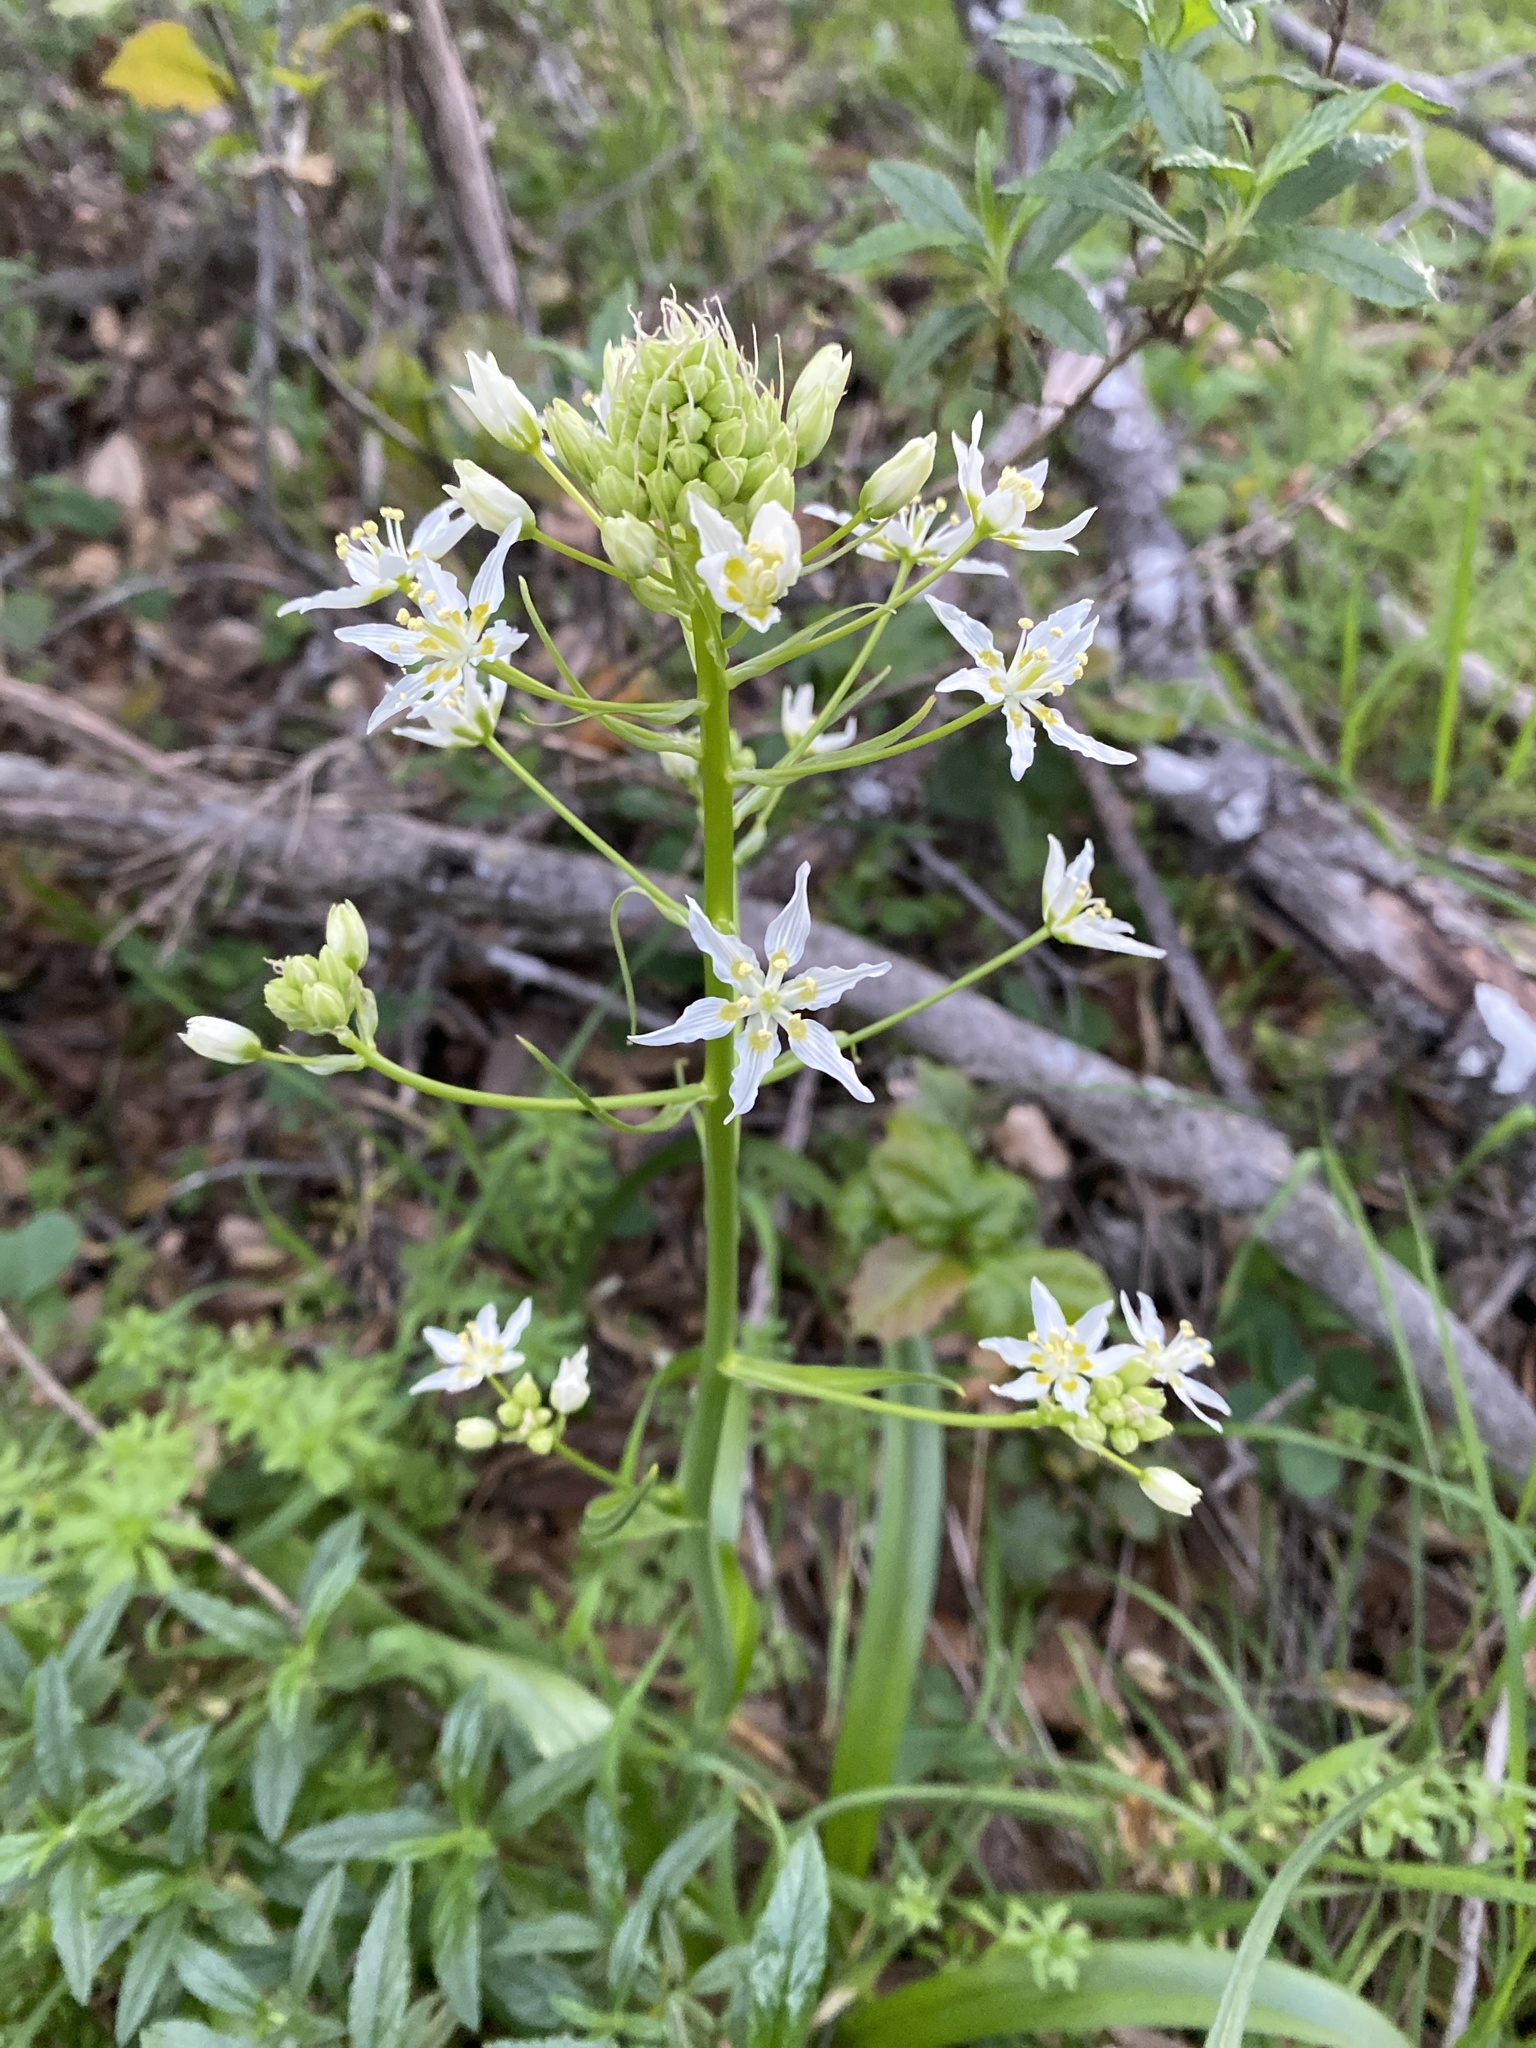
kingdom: Plantae
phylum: Tracheophyta
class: Liliopsida
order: Liliales
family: Melanthiaceae
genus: Toxicoscordion
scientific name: Toxicoscordion fremontii
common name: Fremont's death camas
